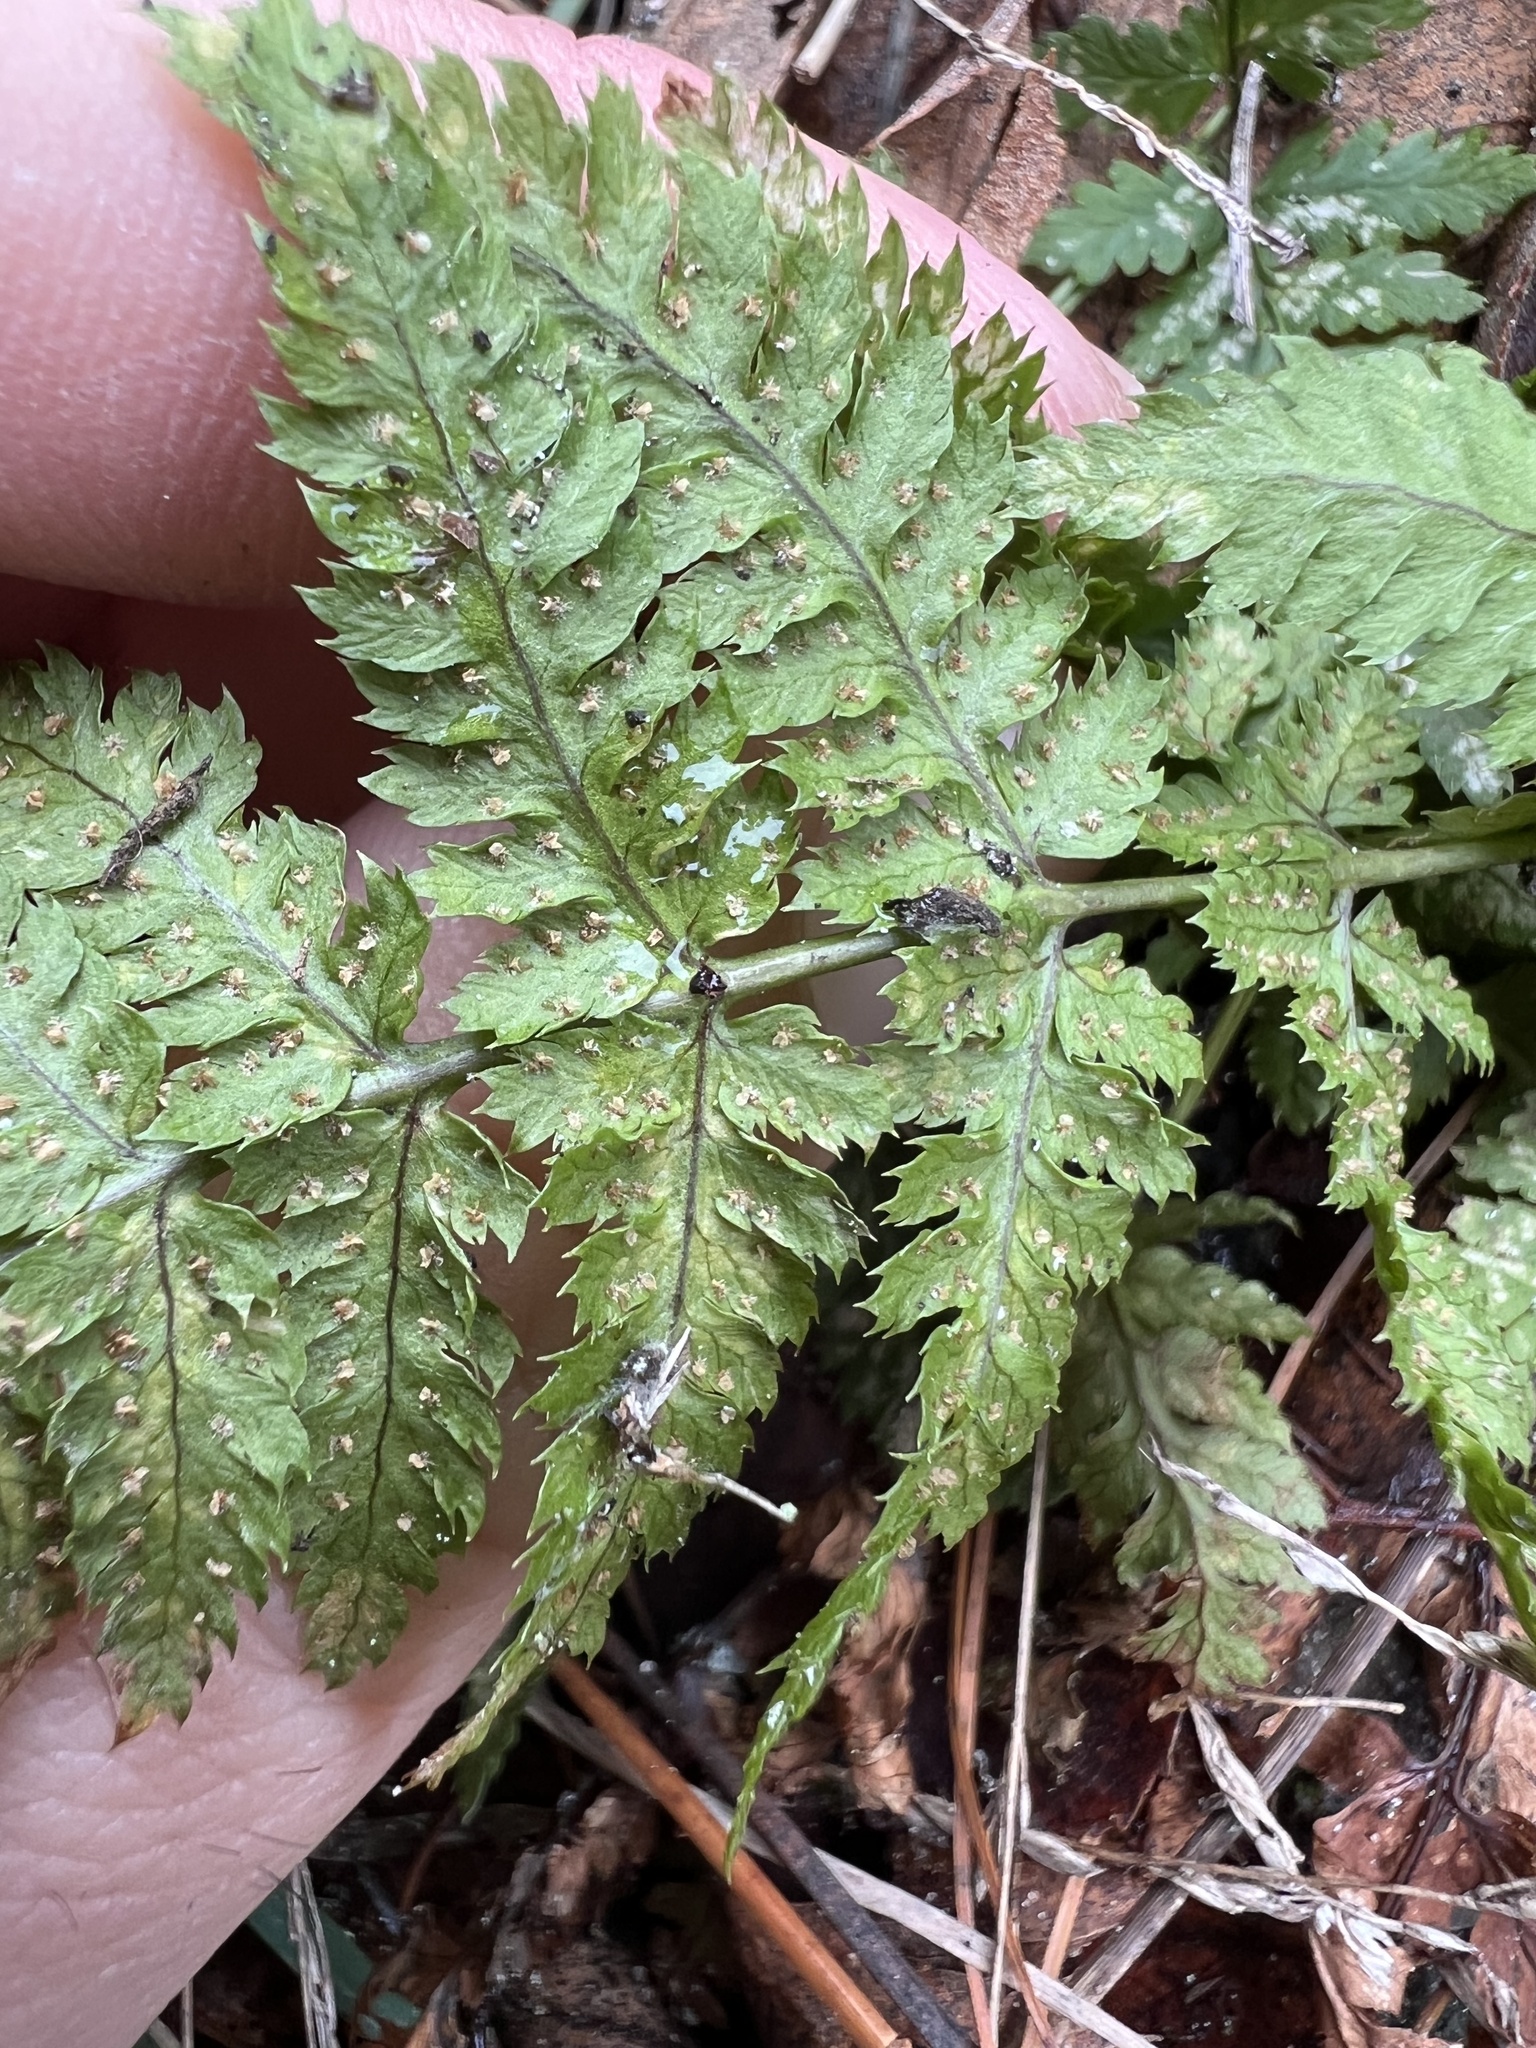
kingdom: Plantae
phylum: Tracheophyta
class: Polypodiopsida
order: Polypodiales
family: Dryopteridaceae
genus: Dryopteris
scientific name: Dryopteris intermedia
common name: Evergreen wood fern
